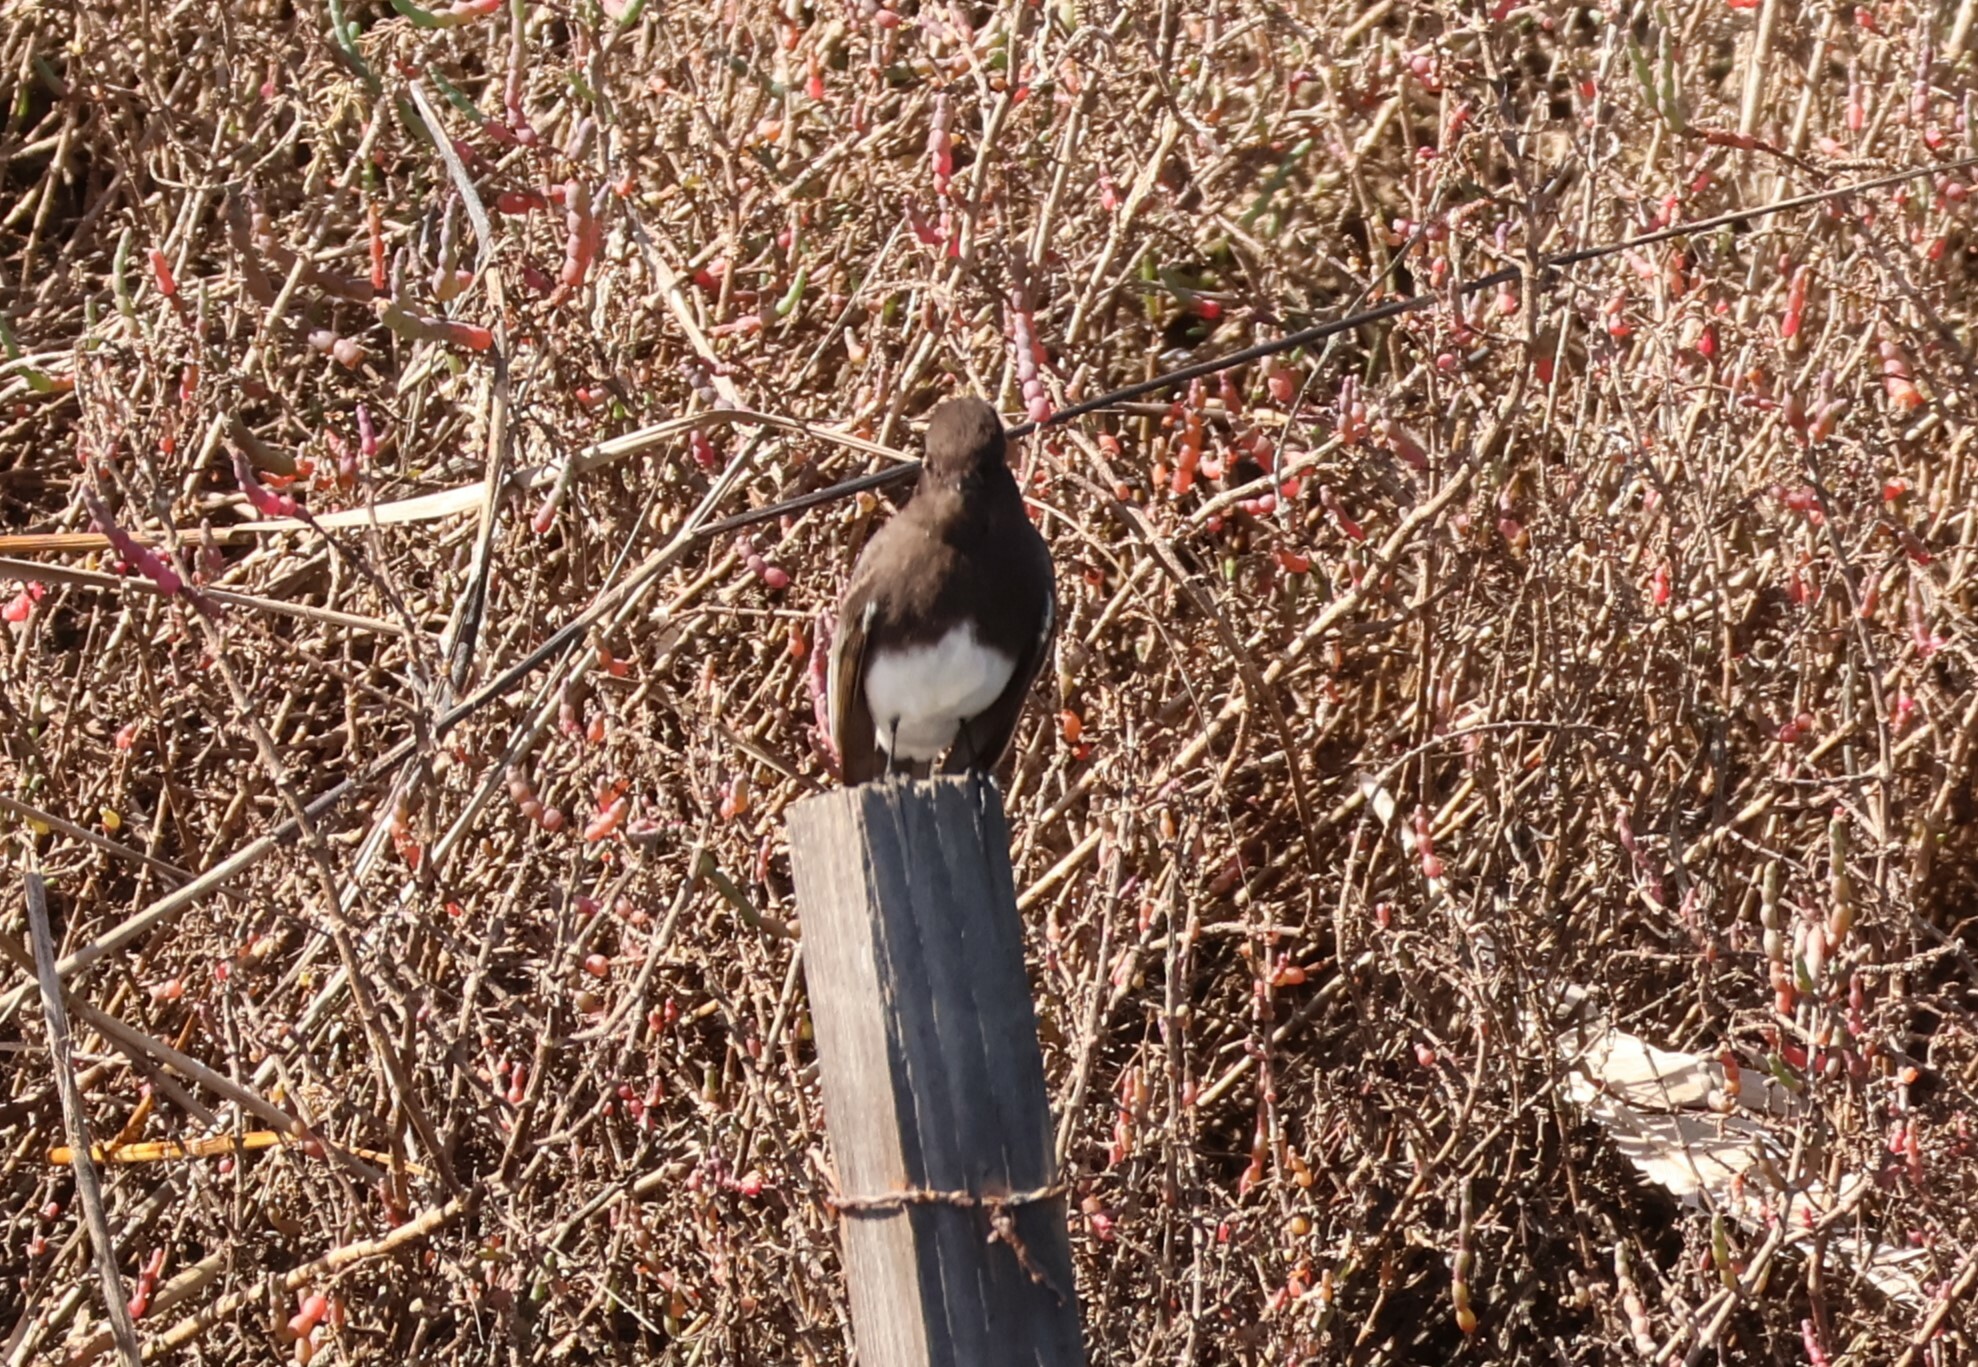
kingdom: Animalia
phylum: Chordata
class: Aves
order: Passeriformes
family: Tyrannidae
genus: Sayornis
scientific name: Sayornis nigricans
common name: Black phoebe
